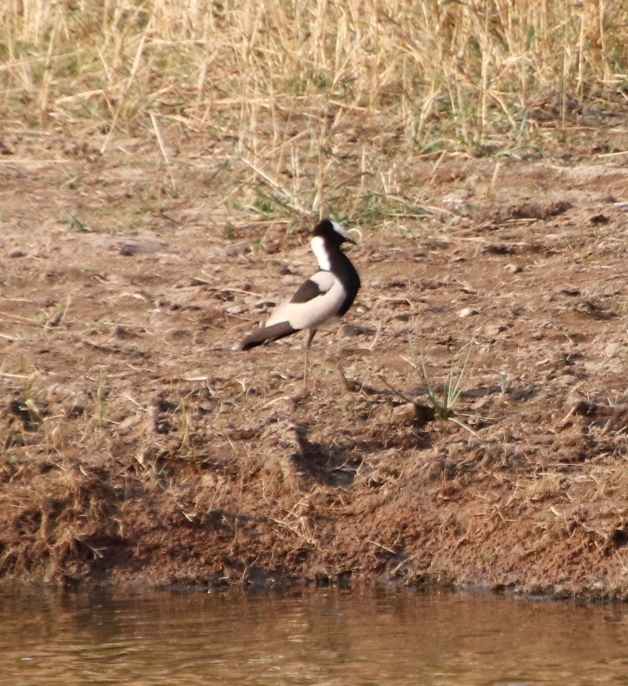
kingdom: Animalia
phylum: Chordata
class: Aves
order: Charadriiformes
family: Charadriidae
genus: Vanellus
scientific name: Vanellus armatus
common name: Blacksmith lapwing
